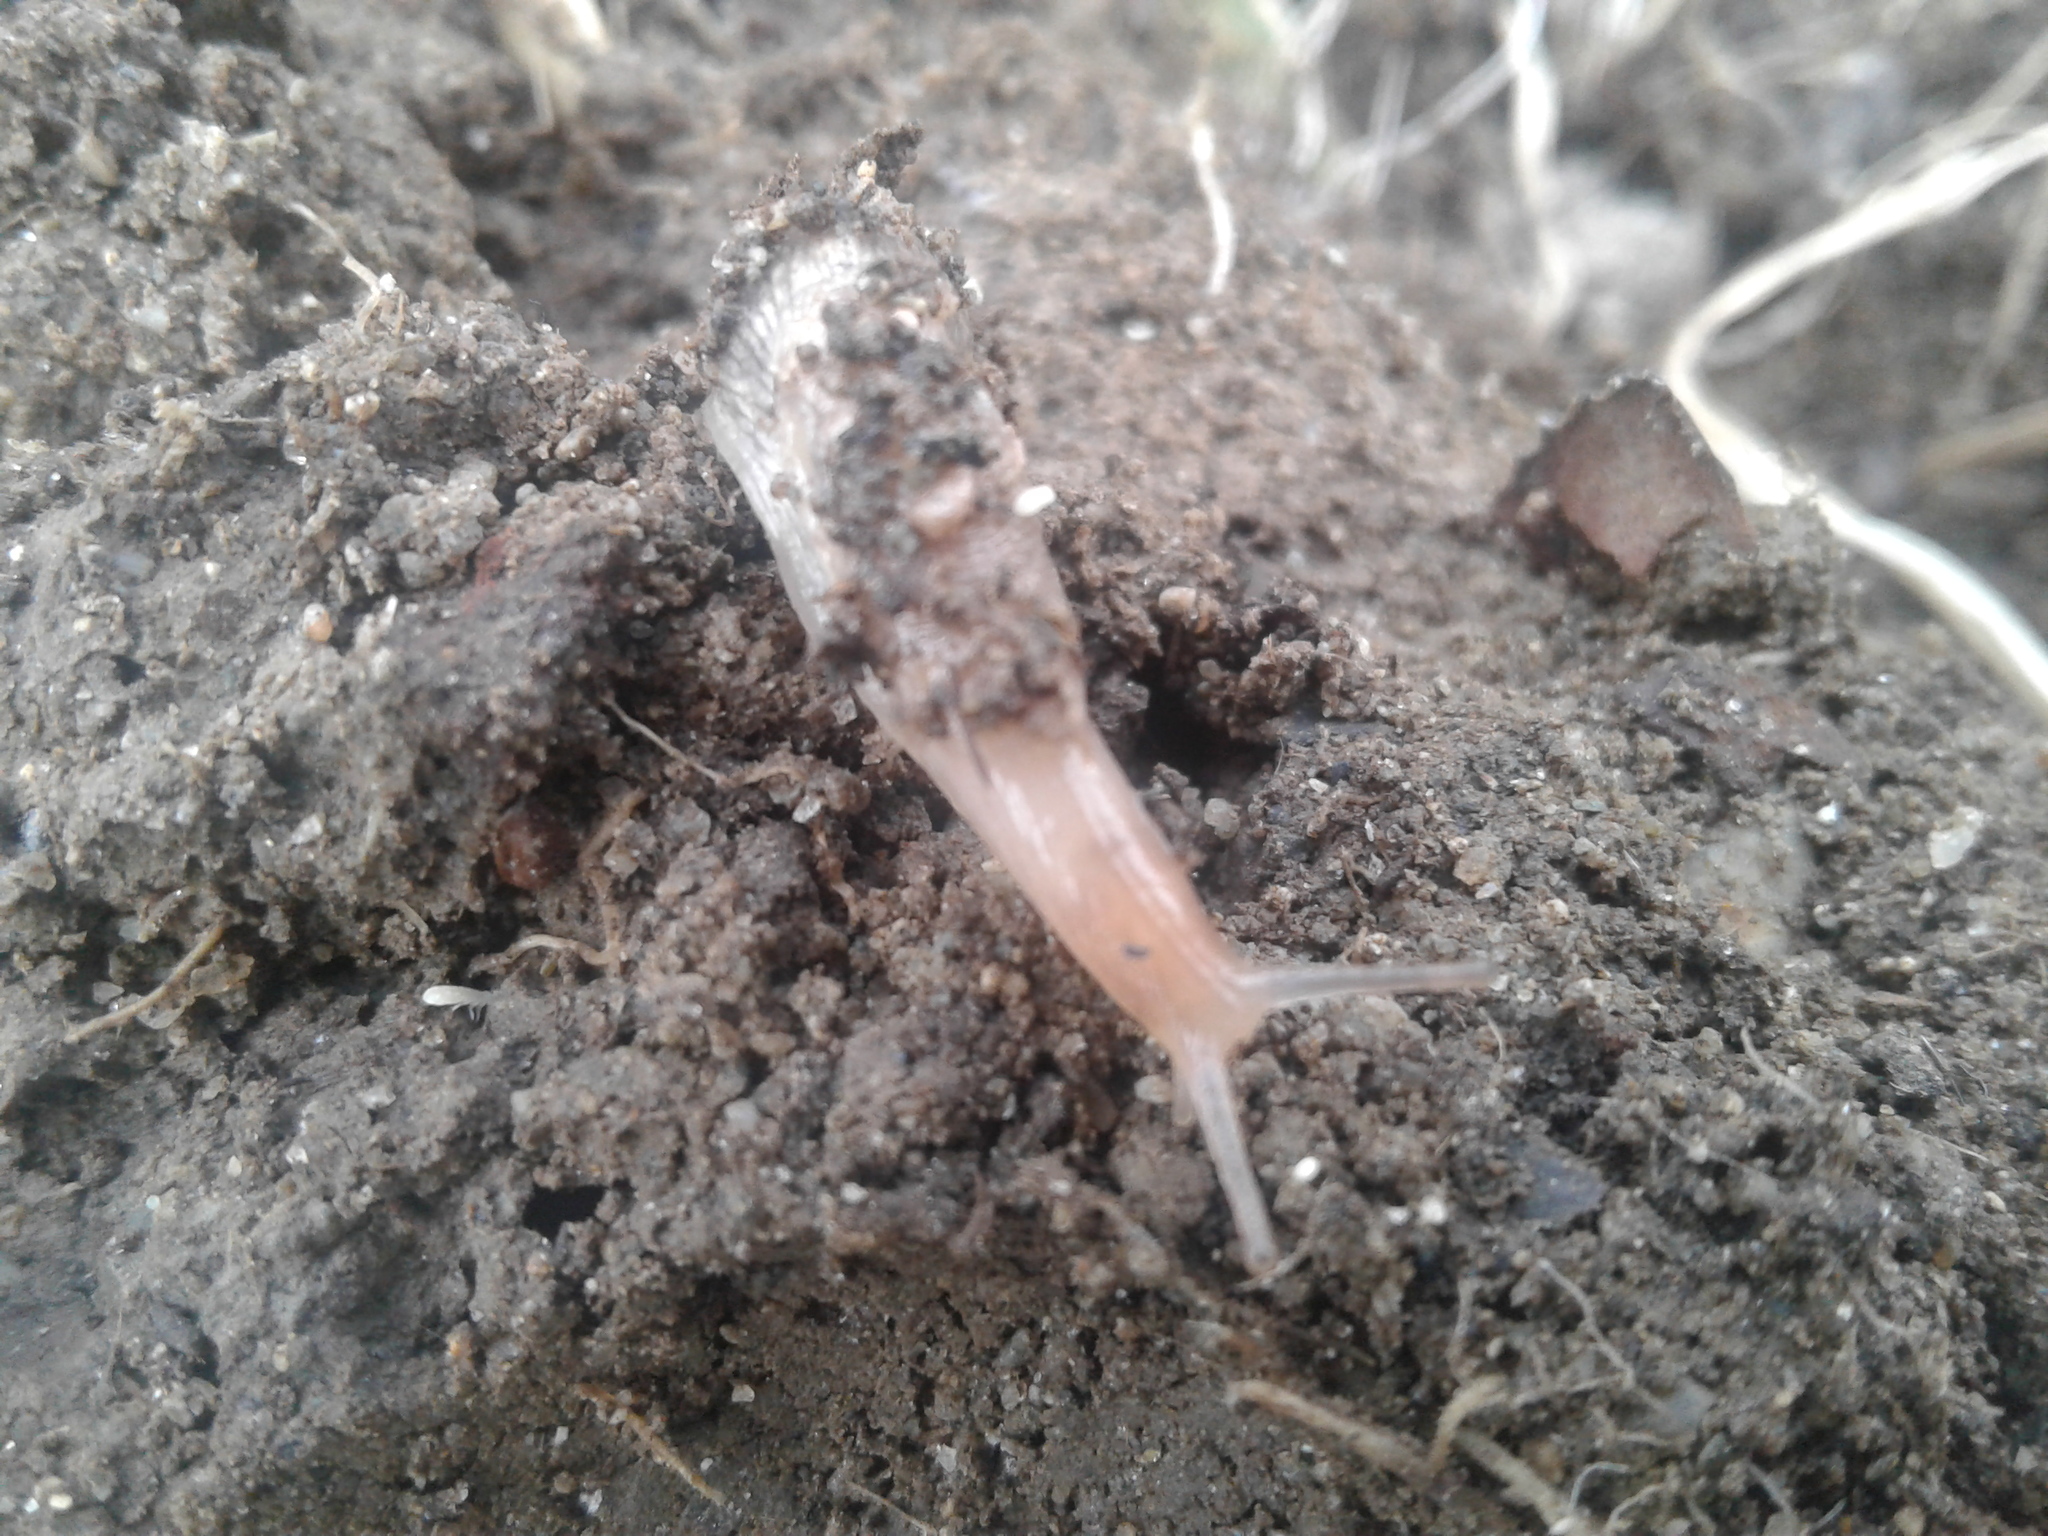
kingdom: Animalia
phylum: Mollusca
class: Gastropoda
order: Stylommatophora
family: Agriolimacidae
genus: Deroceras
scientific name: Deroceras reticulatum
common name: Gray field slug
